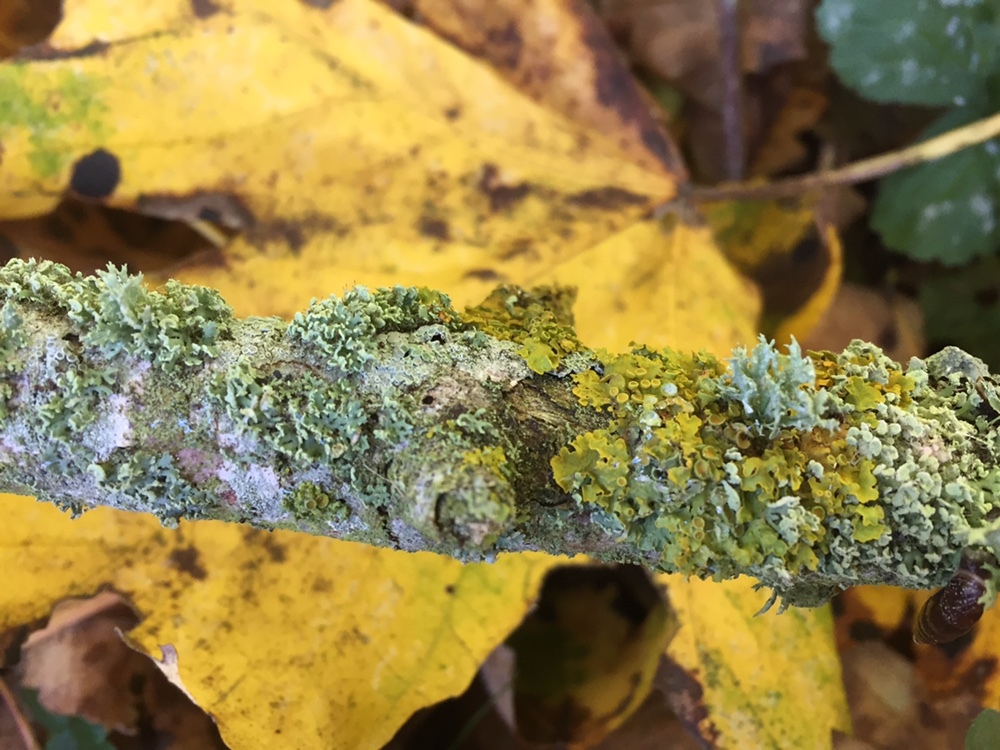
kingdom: Fungi
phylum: Ascomycota
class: Lecanoromycetes
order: Teloschistales
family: Teloschistaceae
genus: Xanthoria
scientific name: Xanthoria parietina
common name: Common orange lichen
